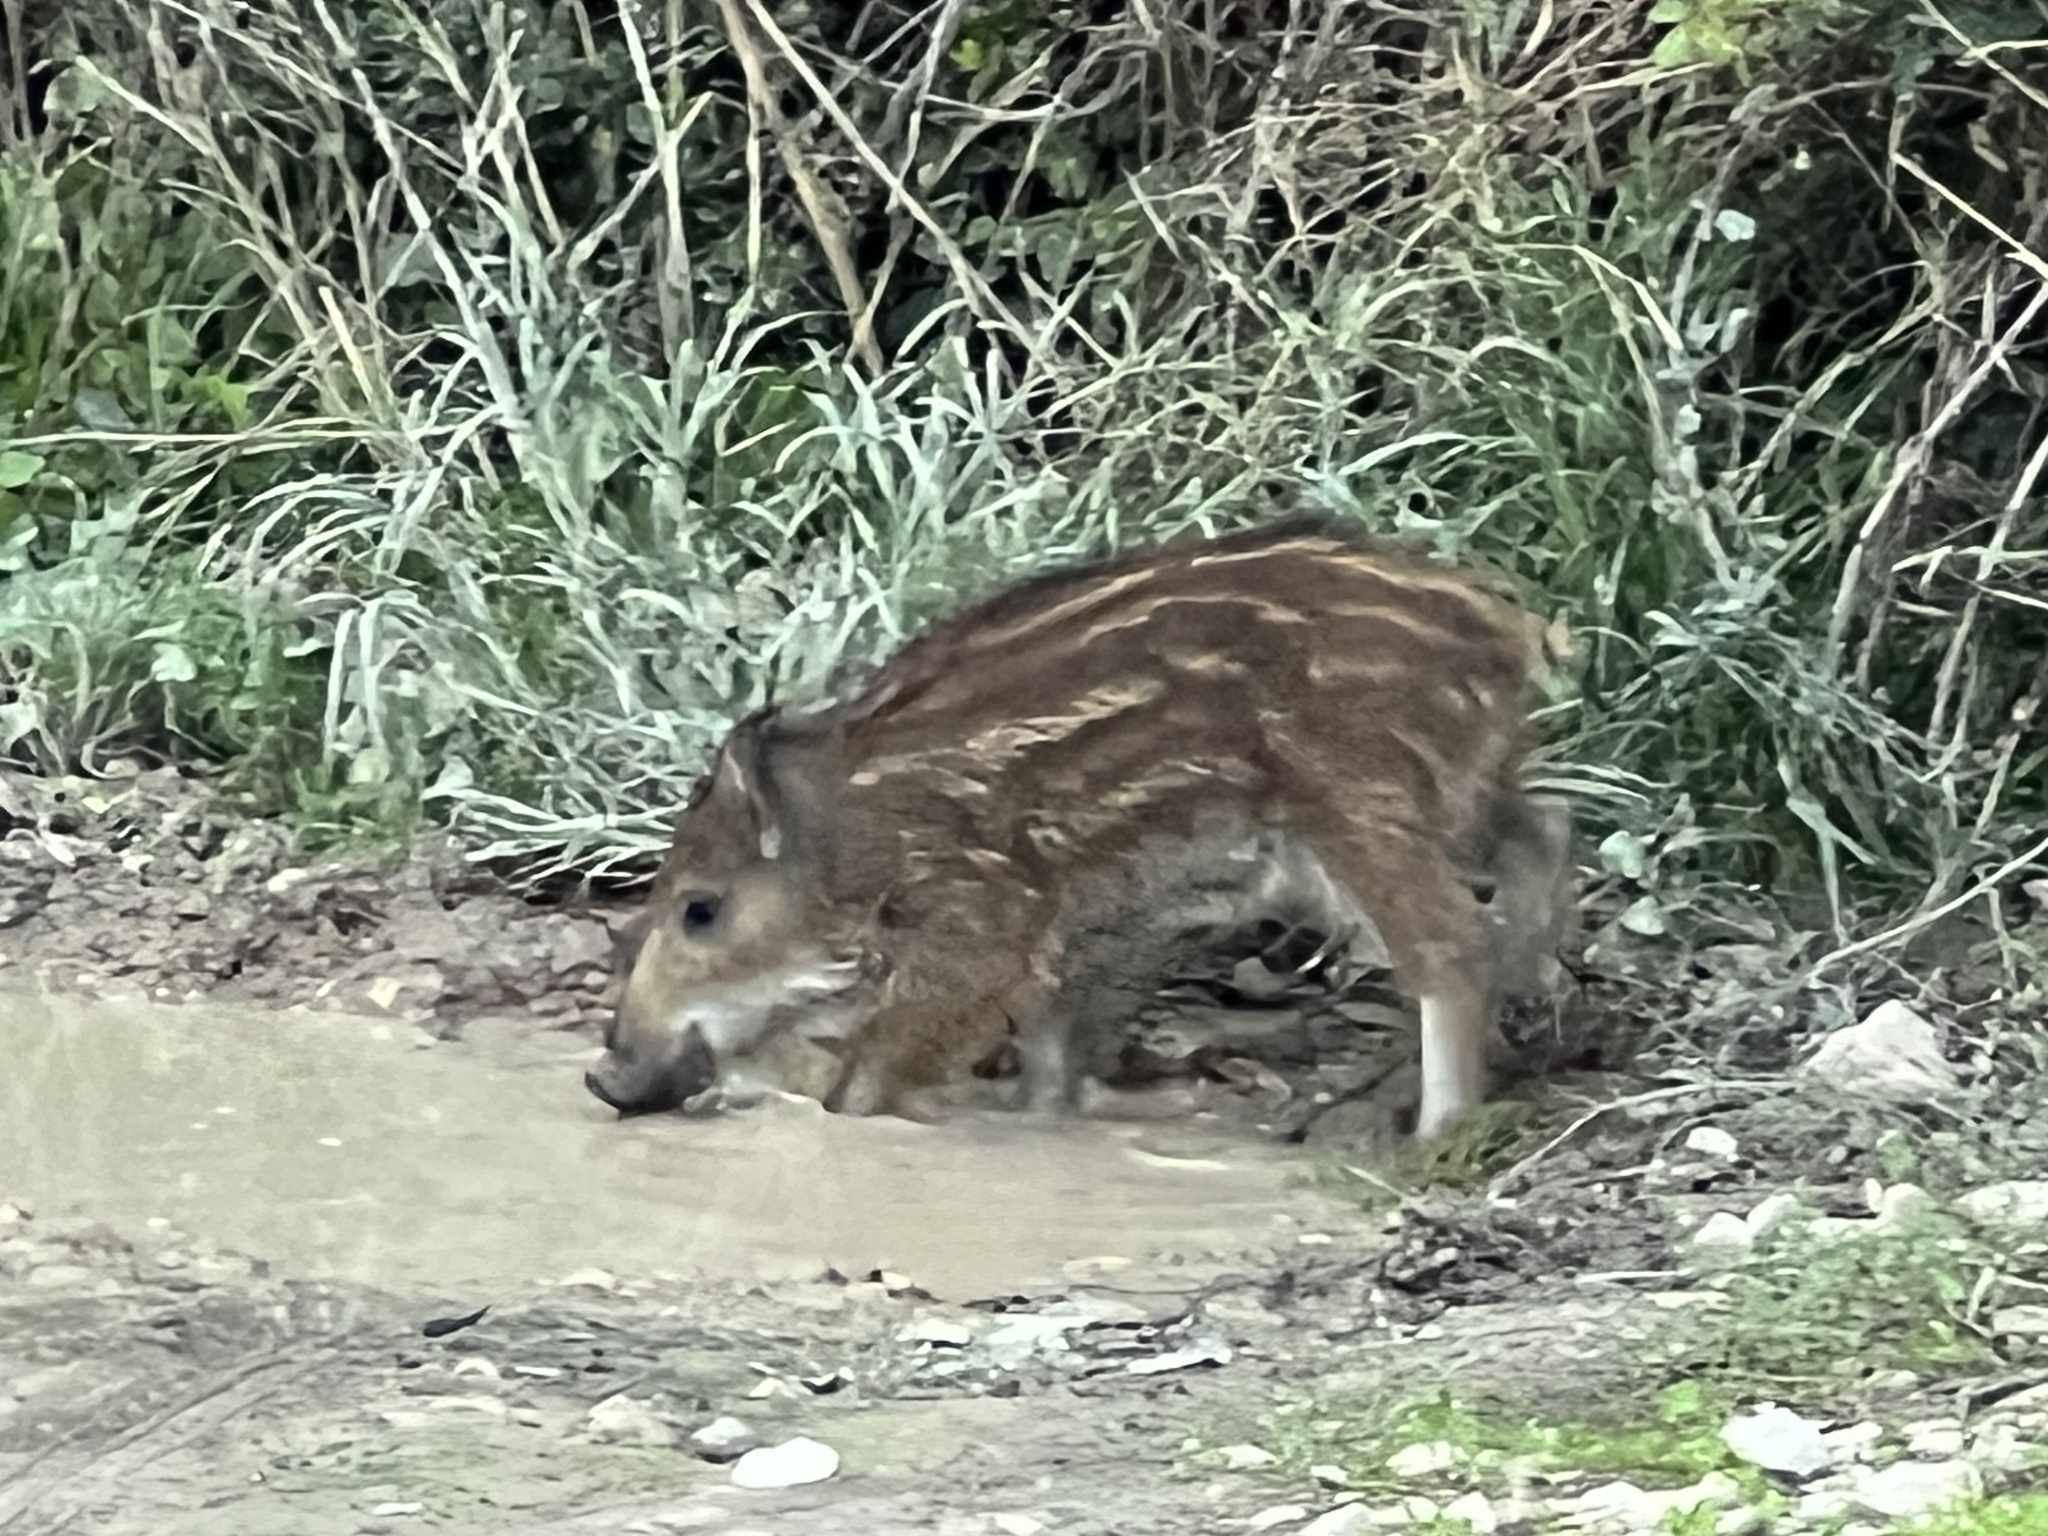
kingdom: Animalia
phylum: Chordata
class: Mammalia
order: Artiodactyla
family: Suidae
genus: Sus
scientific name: Sus scrofa
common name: Wild boar
